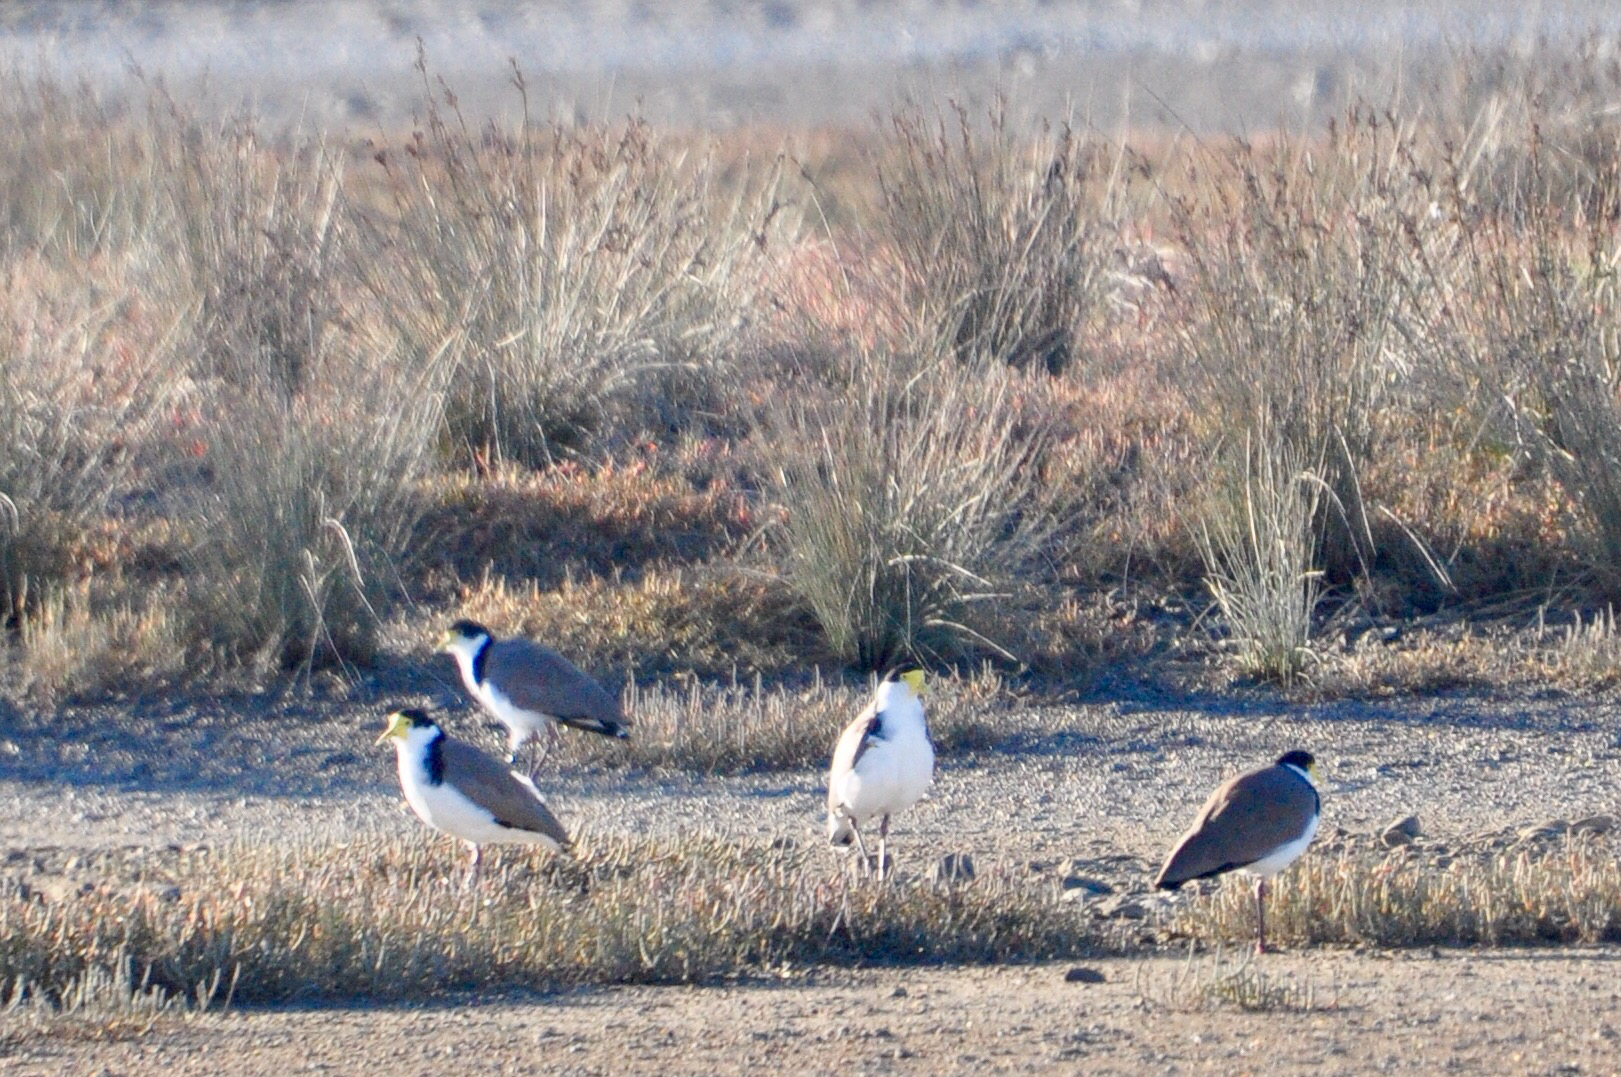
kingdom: Animalia
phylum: Chordata
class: Aves
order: Charadriiformes
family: Charadriidae
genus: Vanellus
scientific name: Vanellus miles
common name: Masked lapwing
